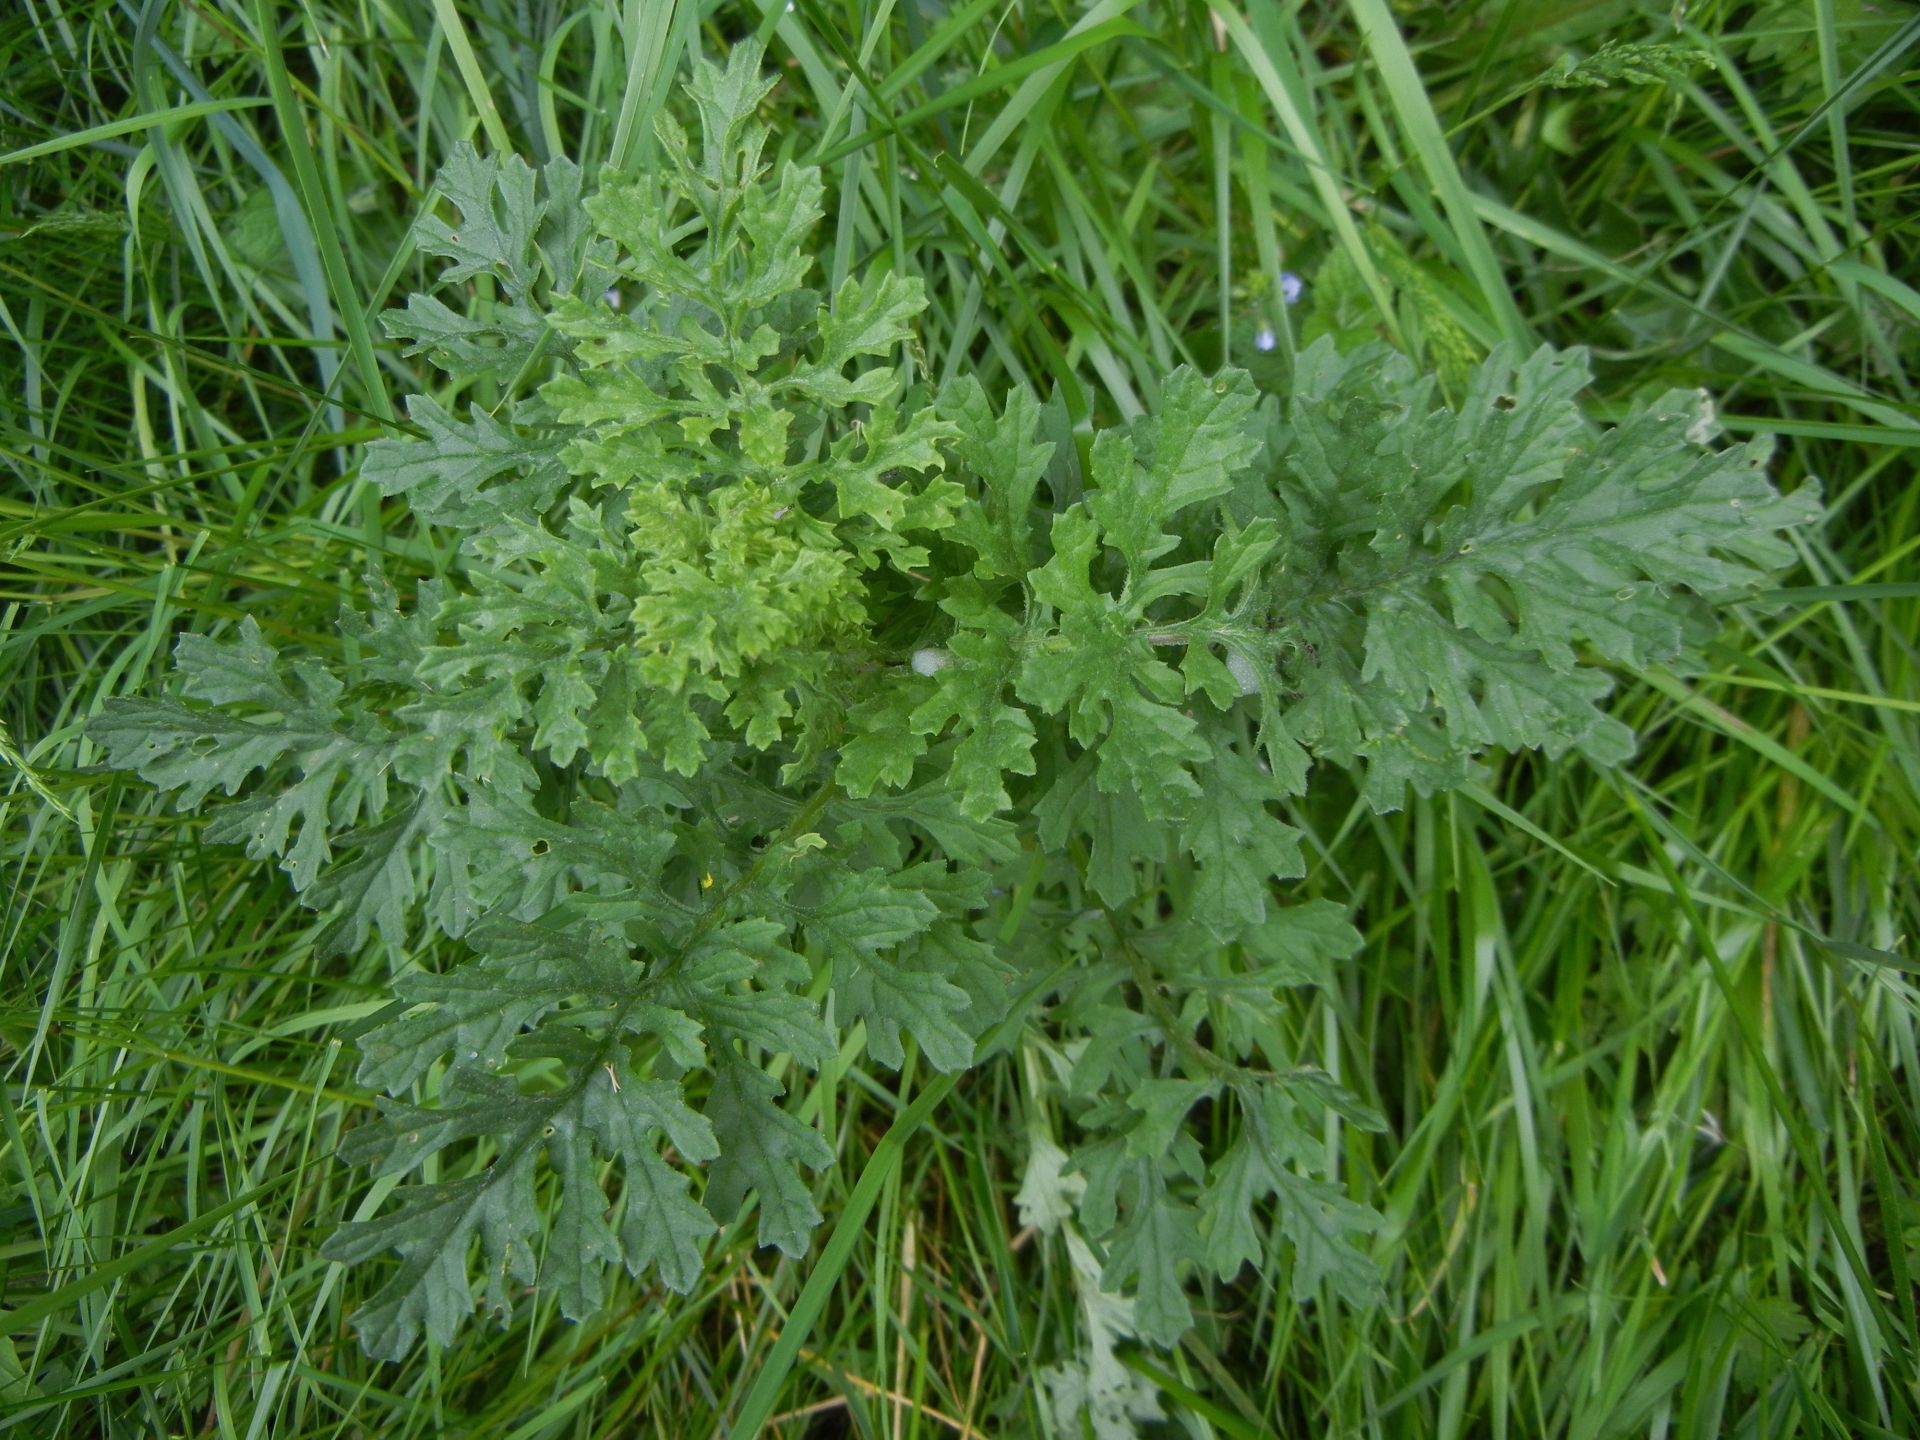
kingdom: Plantae
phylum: Tracheophyta
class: Magnoliopsida
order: Asterales
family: Asteraceae
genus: Jacobaea
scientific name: Jacobaea vulgaris
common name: Stinking willie
